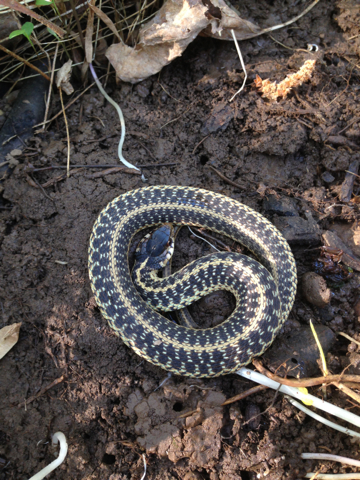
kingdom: Animalia
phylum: Chordata
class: Squamata
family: Colubridae
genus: Thamnophis
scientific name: Thamnophis sirtalis
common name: Common garter snake
